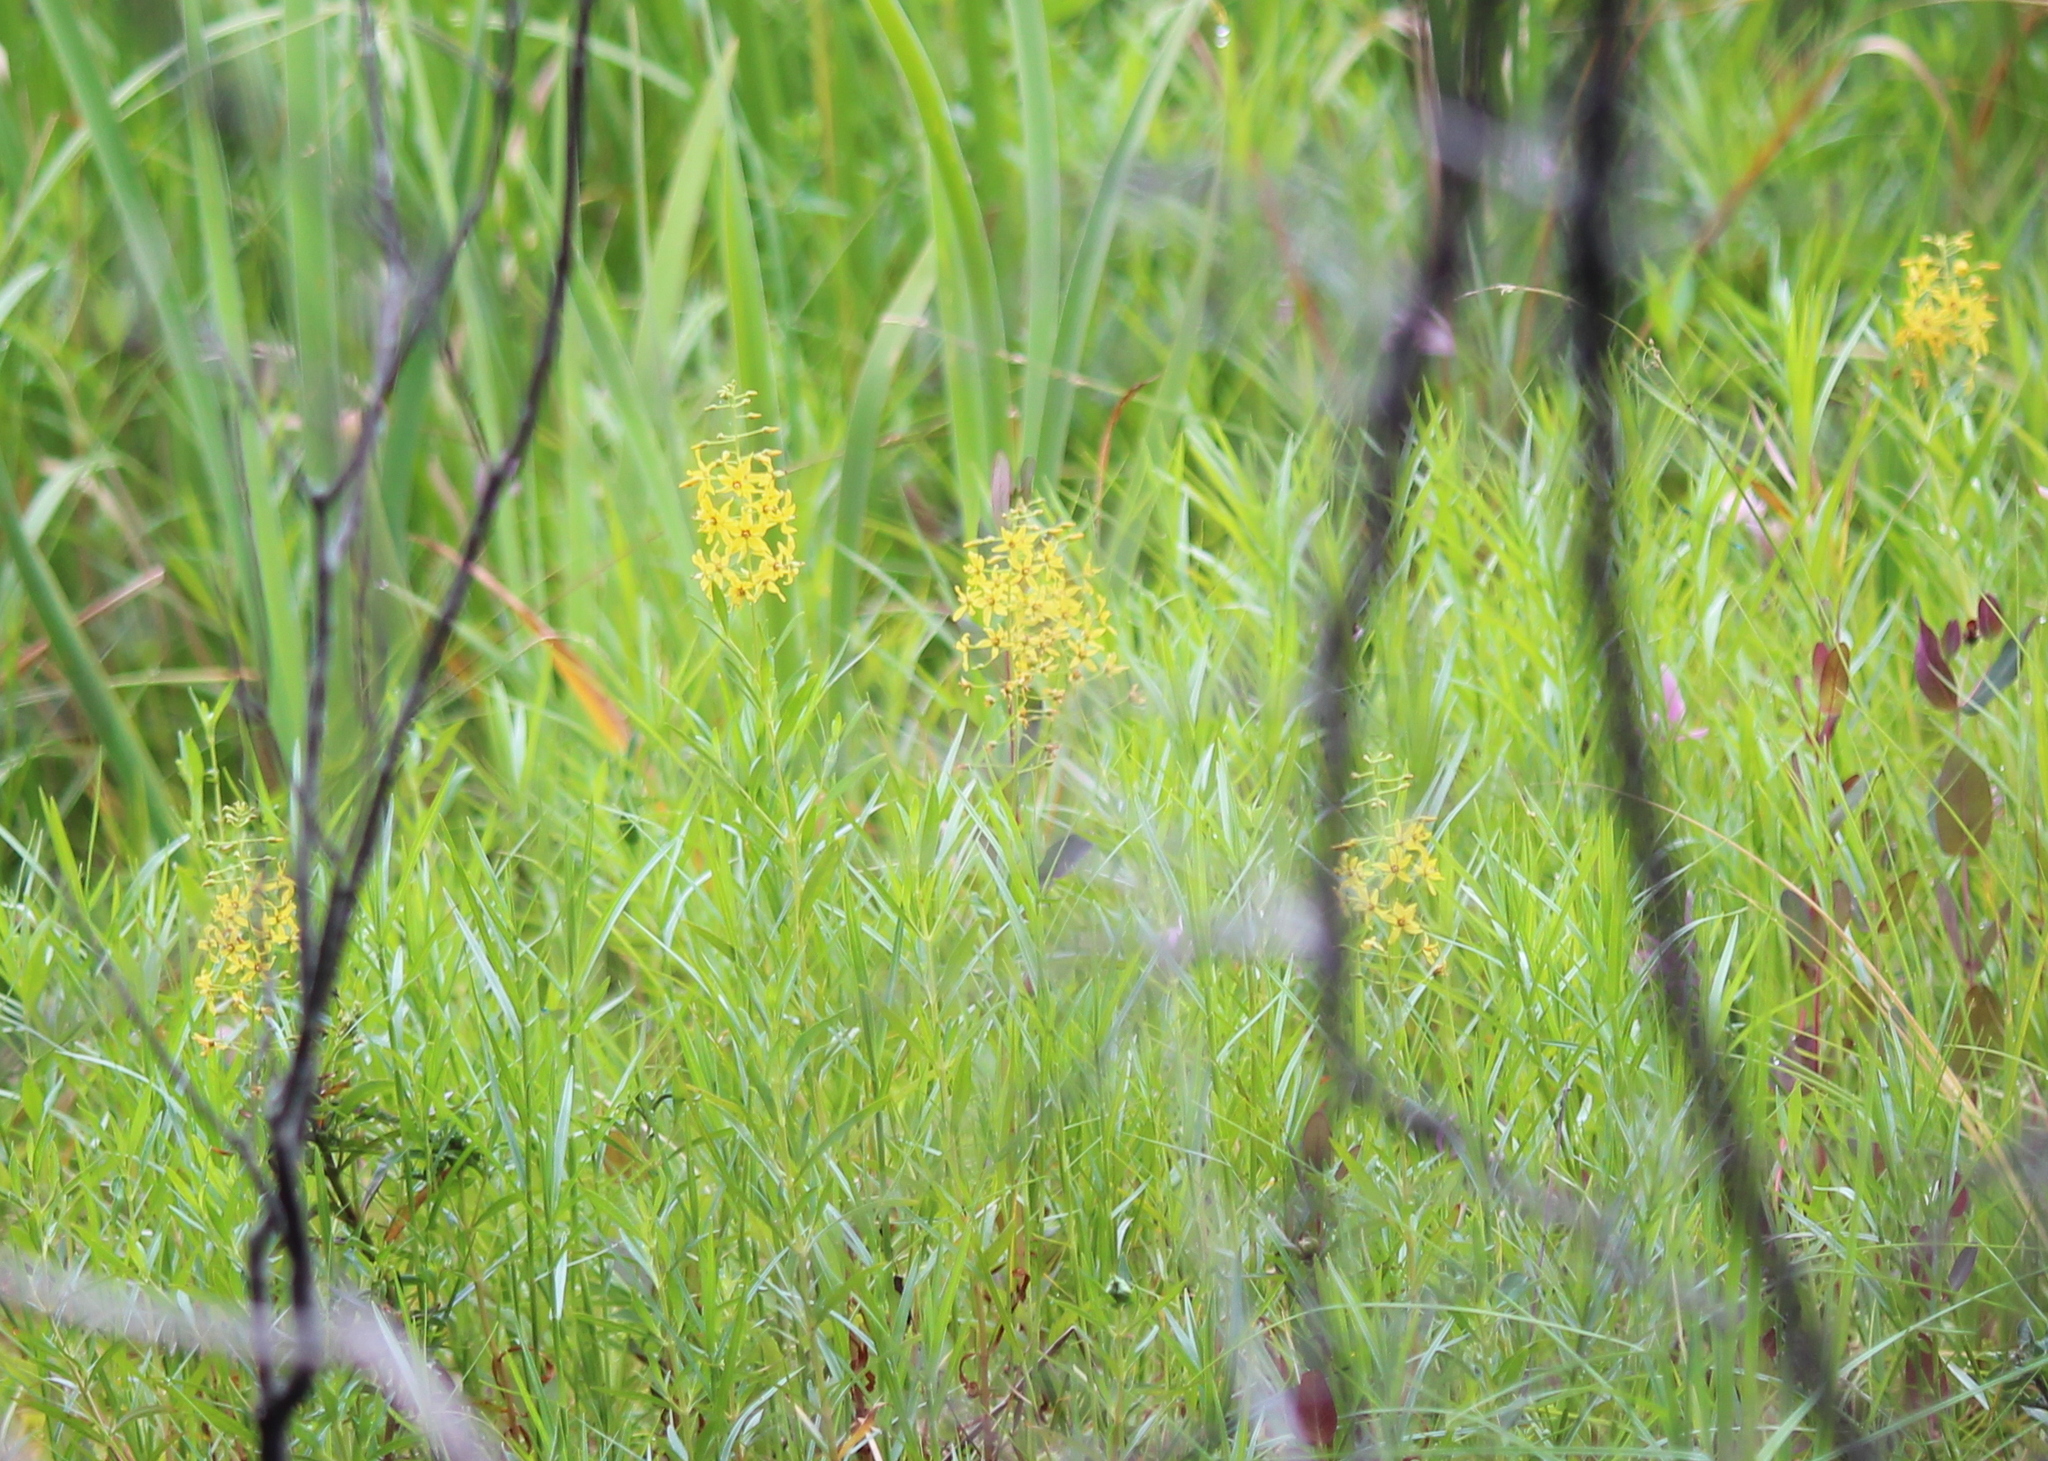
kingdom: Plantae
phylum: Tracheophyta
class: Magnoliopsida
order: Ericales
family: Primulaceae
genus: Lysimachia
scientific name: Lysimachia terrestris
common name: Lake loosestrife
